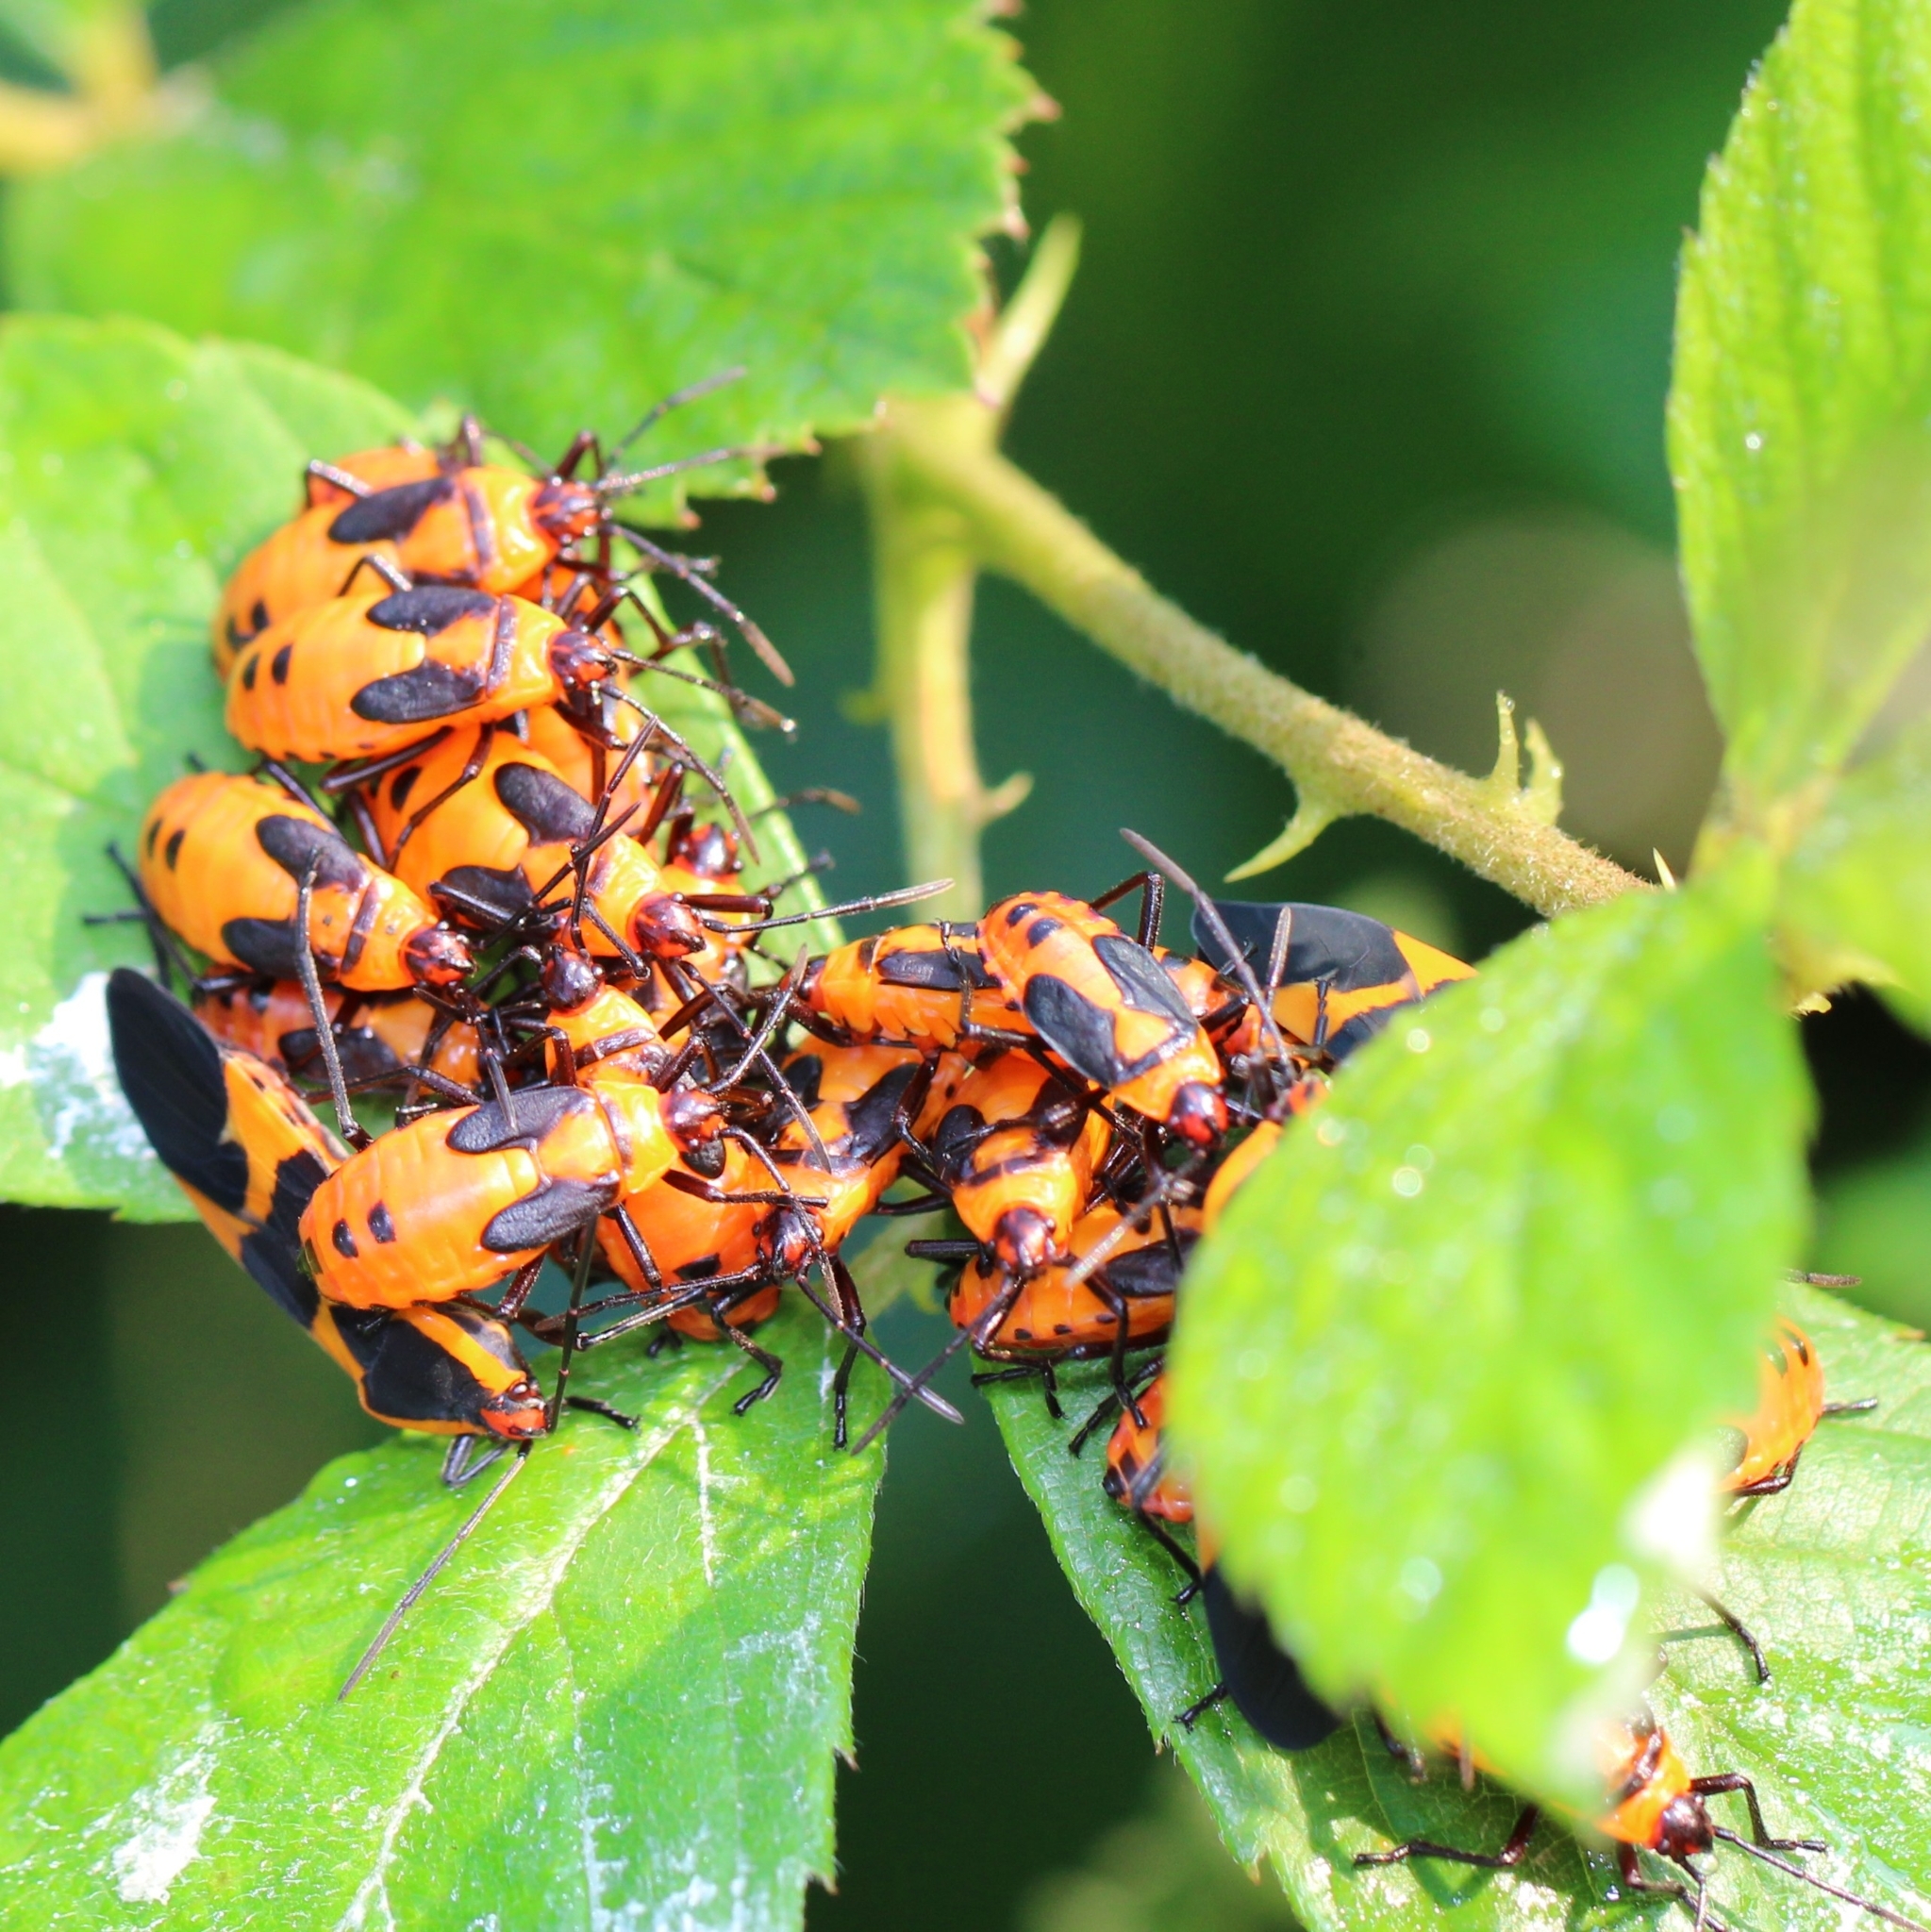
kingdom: Animalia
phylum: Arthropoda
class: Insecta
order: Hemiptera
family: Lygaeidae
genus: Oncopeltus
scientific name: Oncopeltus fasciatus
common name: Large milkweed bug
